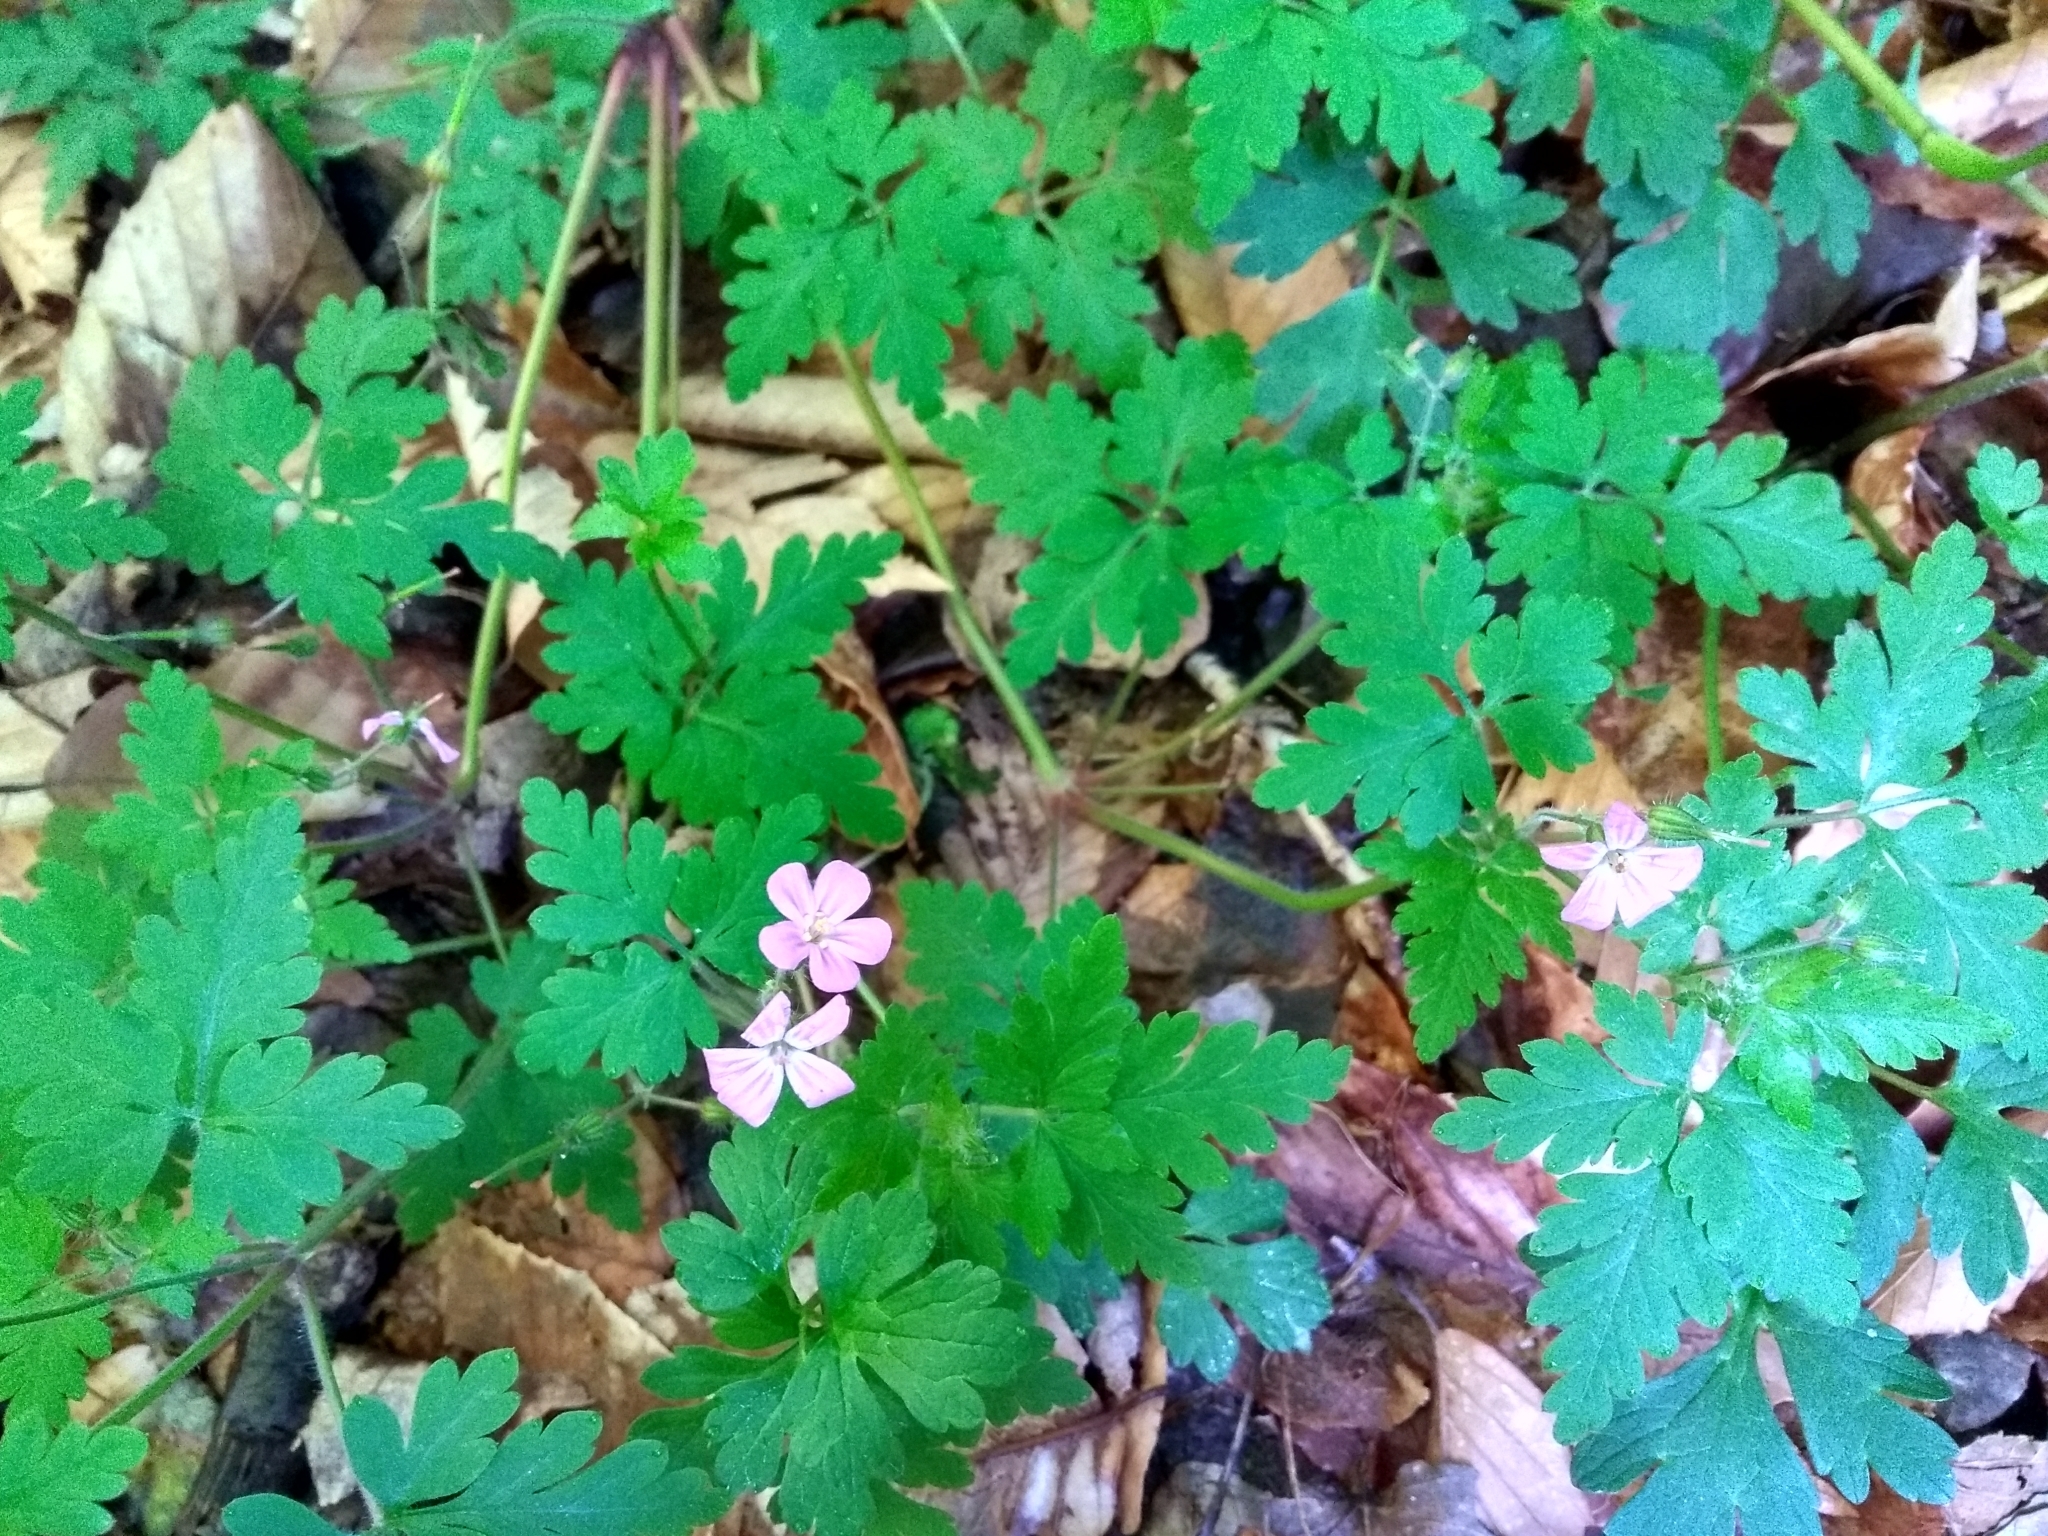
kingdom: Plantae
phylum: Tracheophyta
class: Magnoliopsida
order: Geraniales
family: Geraniaceae
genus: Geranium
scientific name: Geranium robertianum
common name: Herb-robert
